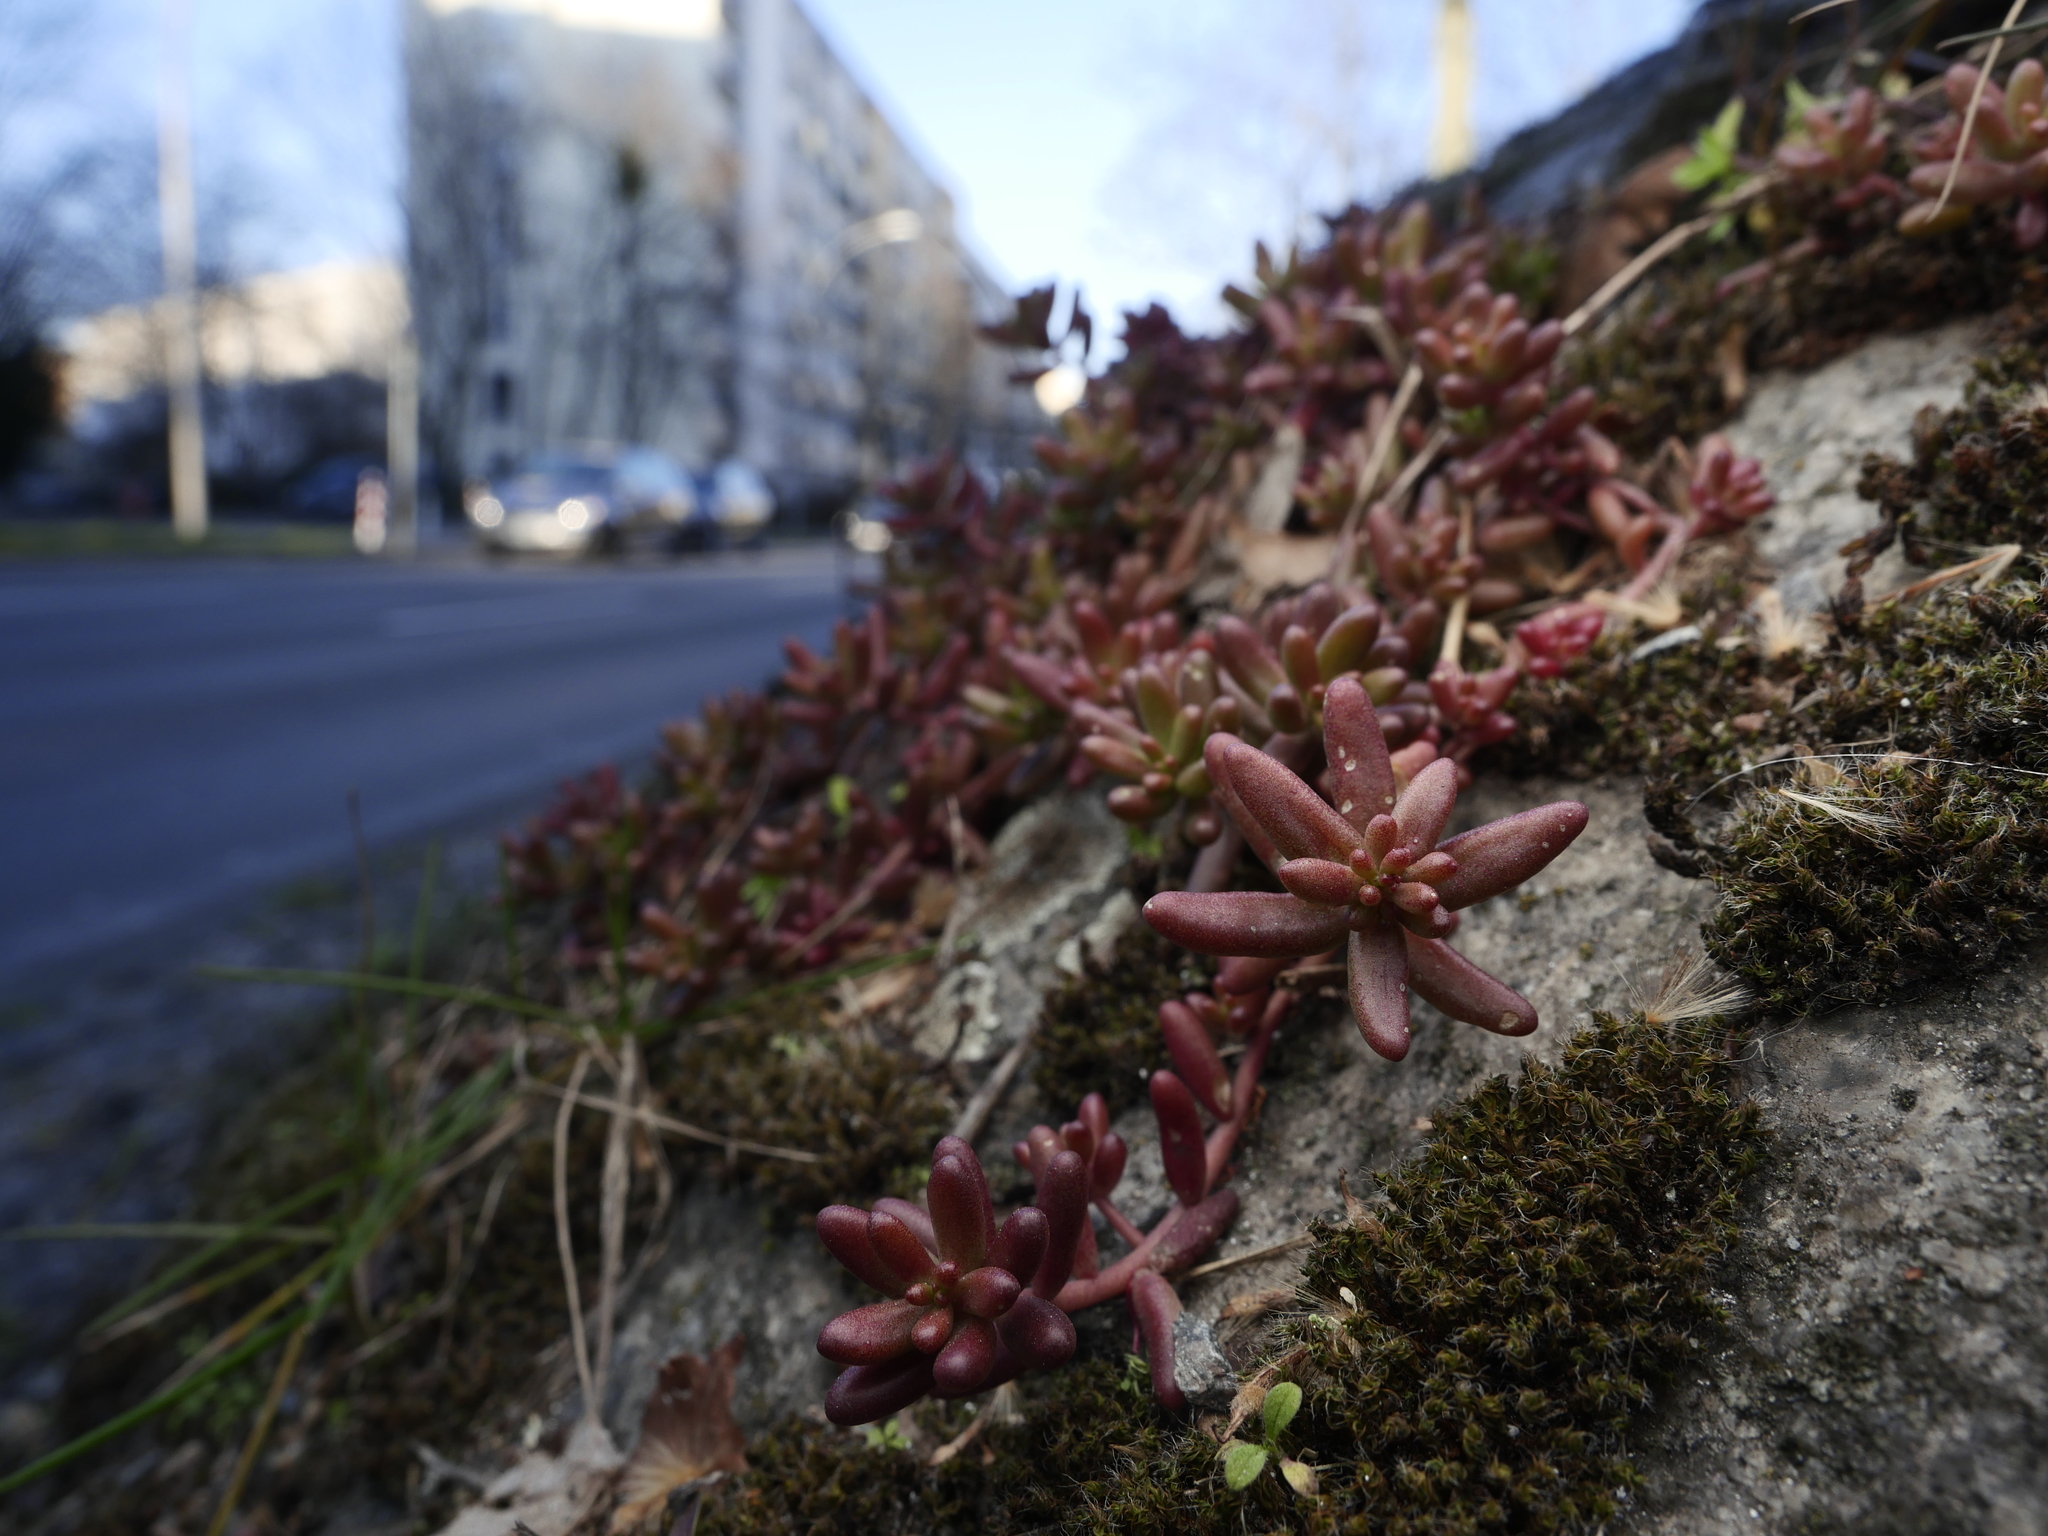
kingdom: Plantae
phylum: Tracheophyta
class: Magnoliopsida
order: Saxifragales
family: Crassulaceae
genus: Sedum
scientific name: Sedum album
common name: White stonecrop
